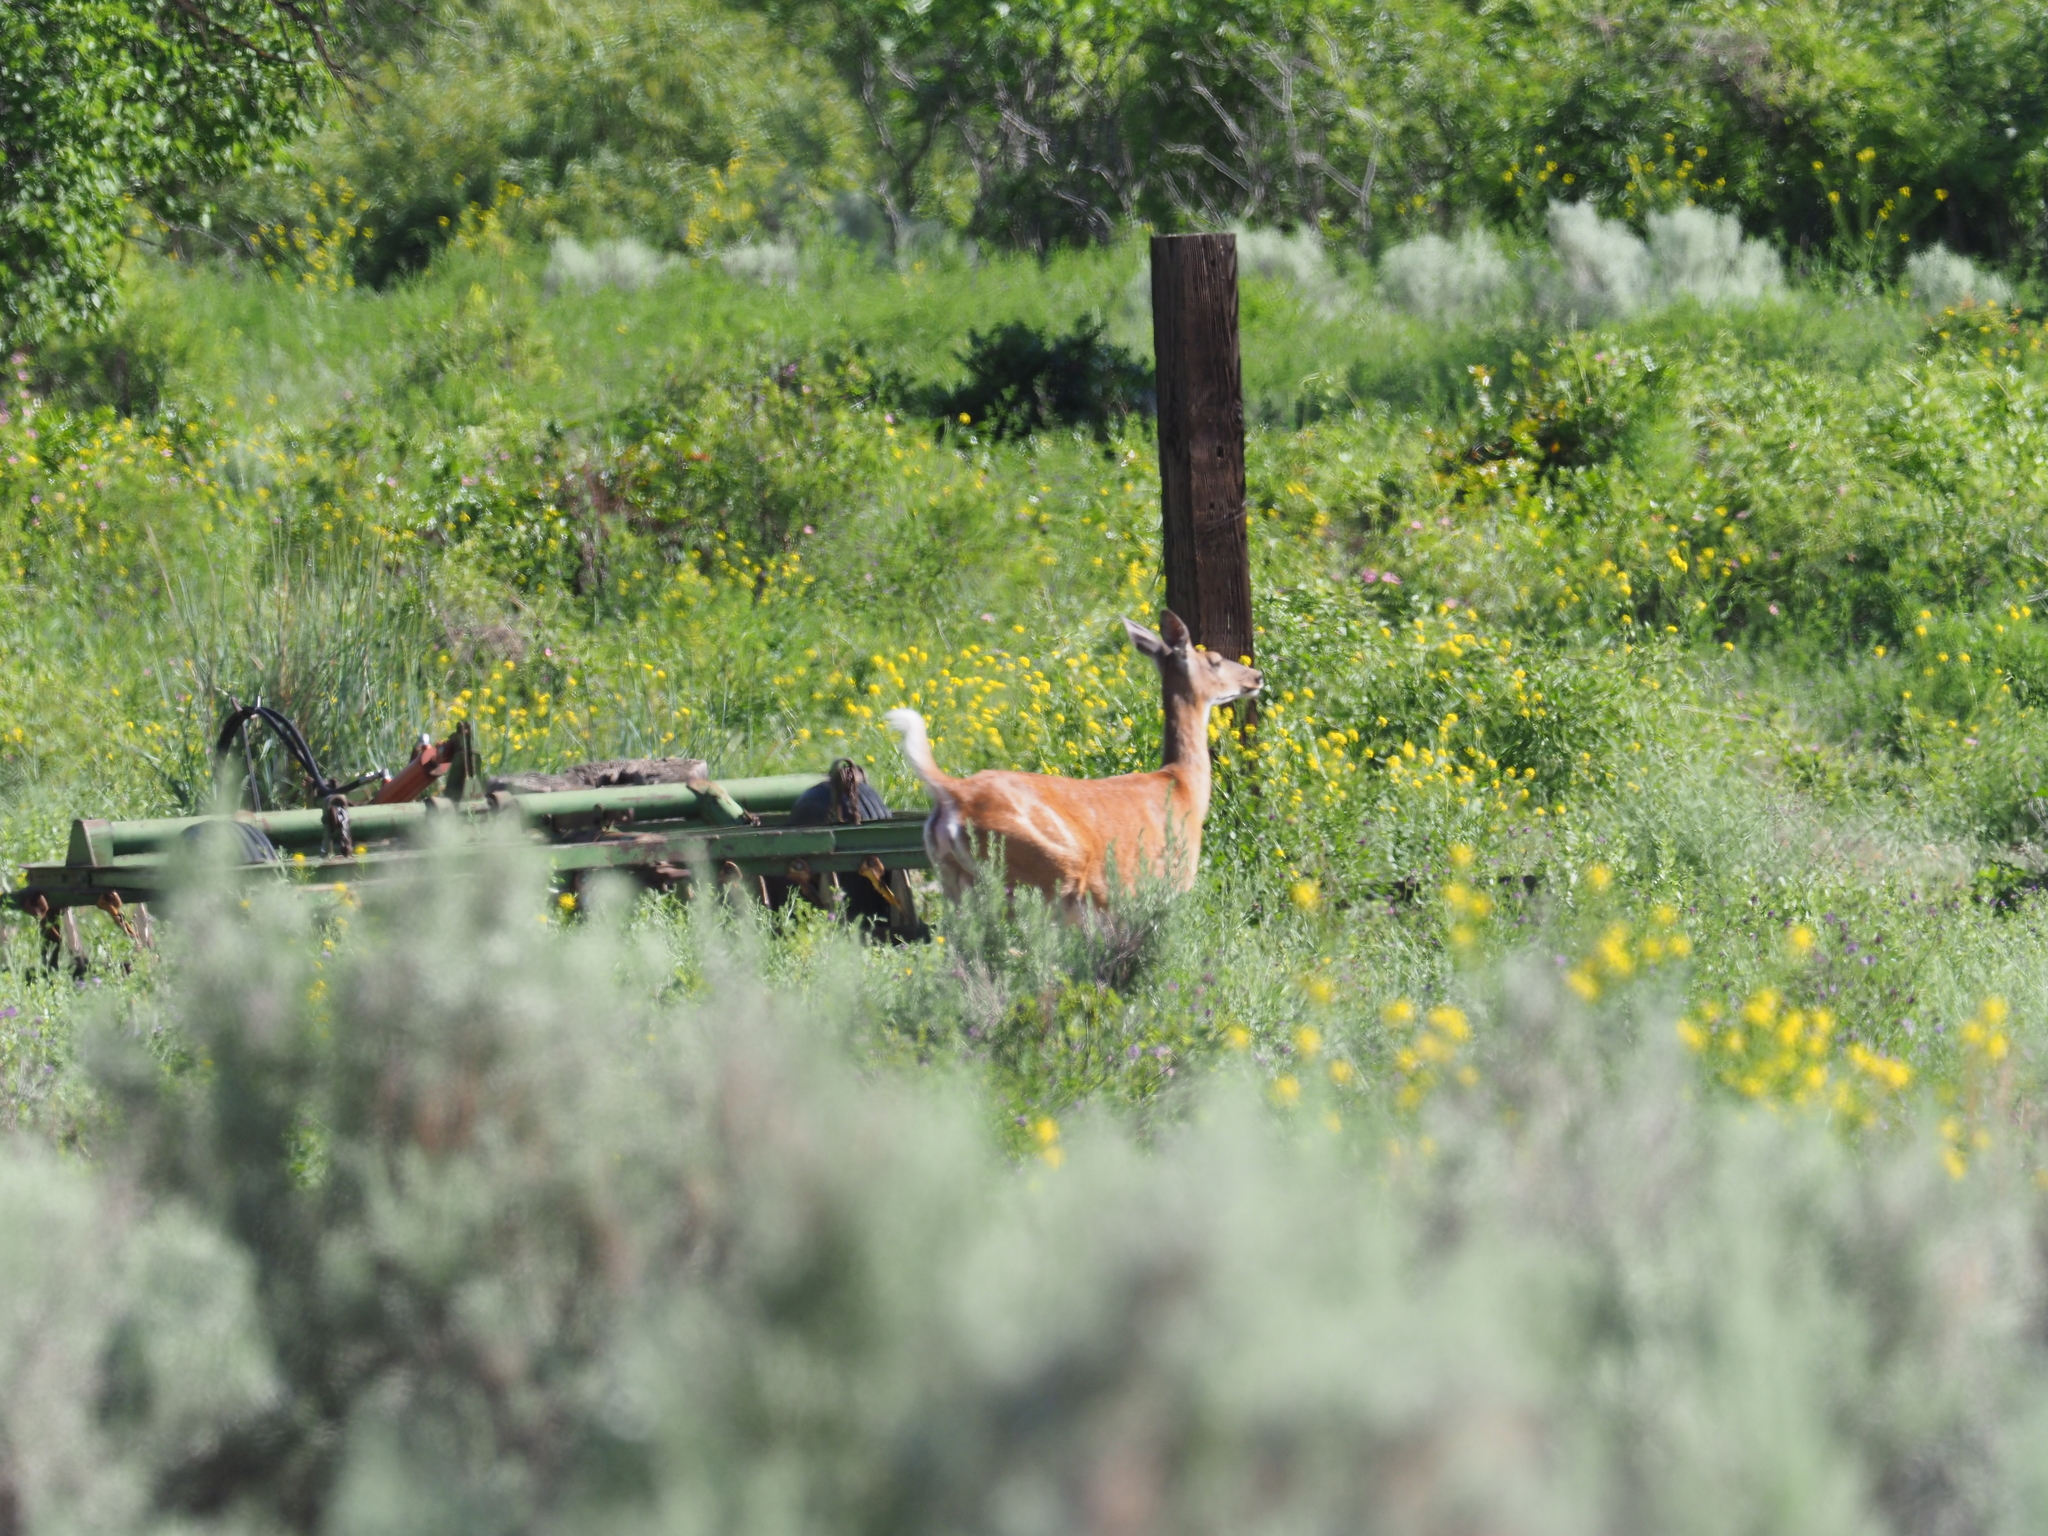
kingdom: Animalia
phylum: Chordata
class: Mammalia
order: Artiodactyla
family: Cervidae
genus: Odocoileus
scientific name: Odocoileus virginianus
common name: White-tailed deer
